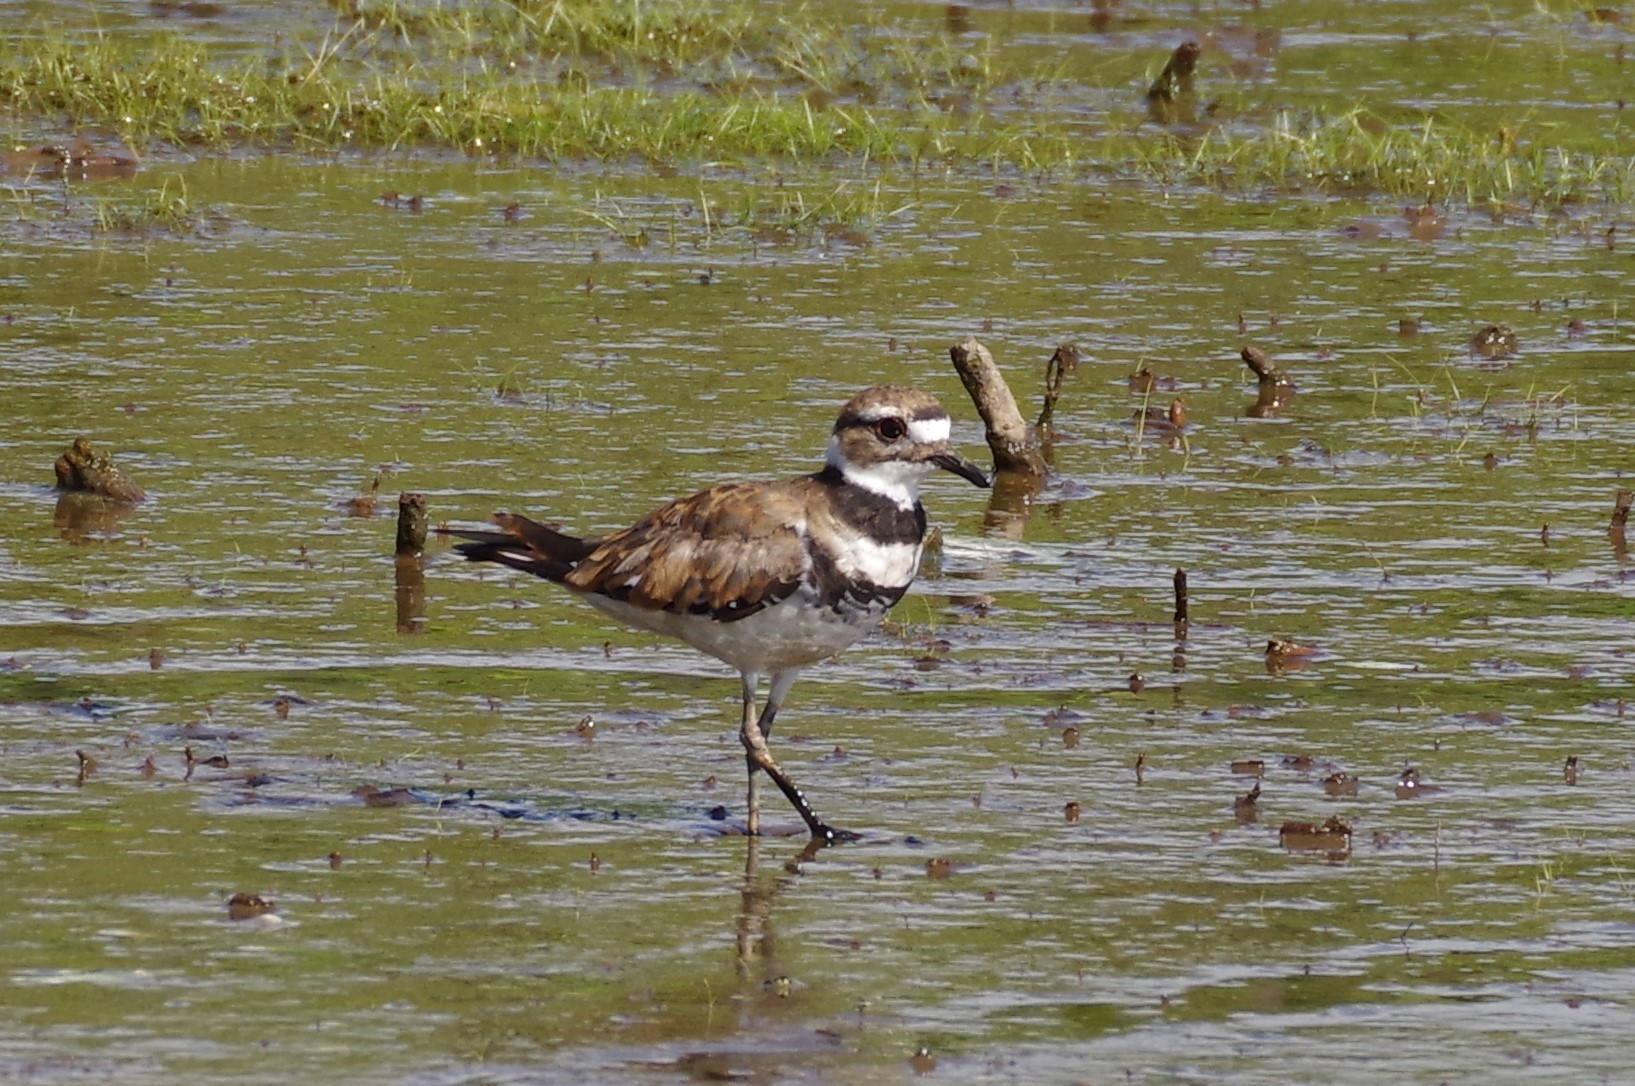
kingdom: Animalia
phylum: Chordata
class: Aves
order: Charadriiformes
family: Charadriidae
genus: Charadrius
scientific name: Charadrius vociferus
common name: Killdeer
